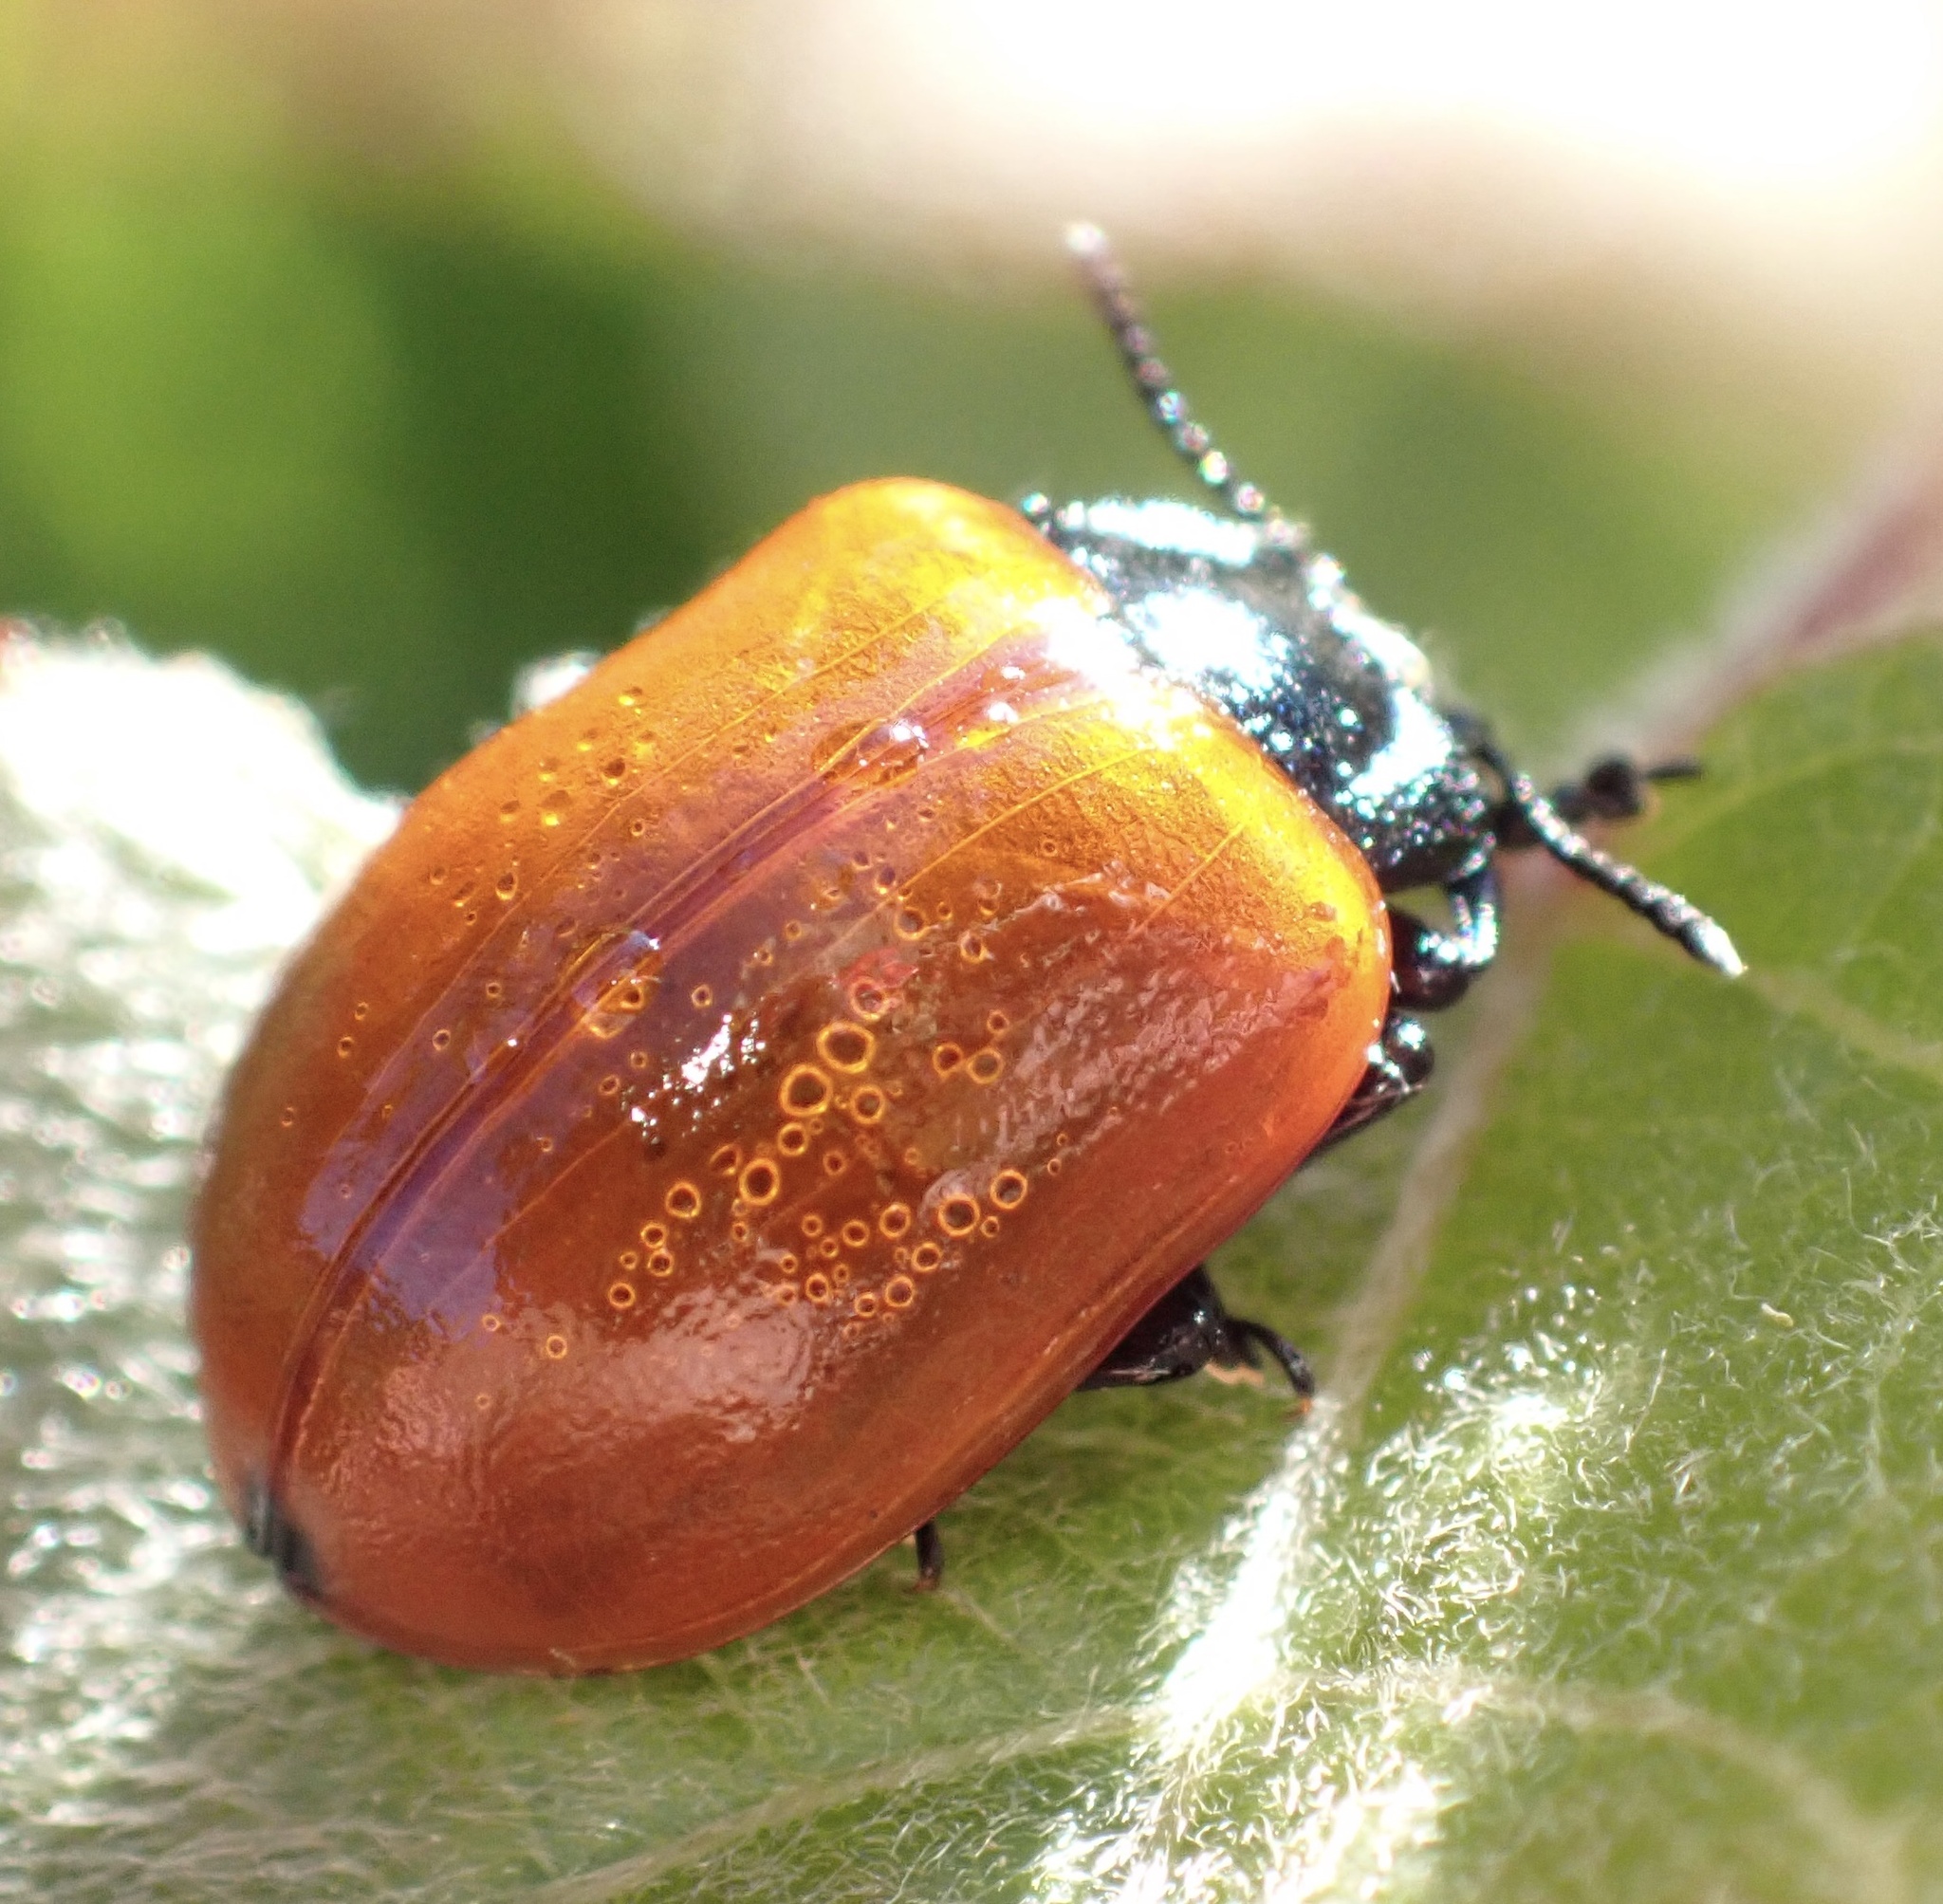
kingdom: Animalia
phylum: Arthropoda
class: Insecta
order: Coleoptera
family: Chrysomelidae
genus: Chrysomela
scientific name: Chrysomela populi
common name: Red poplar leaf beetle
